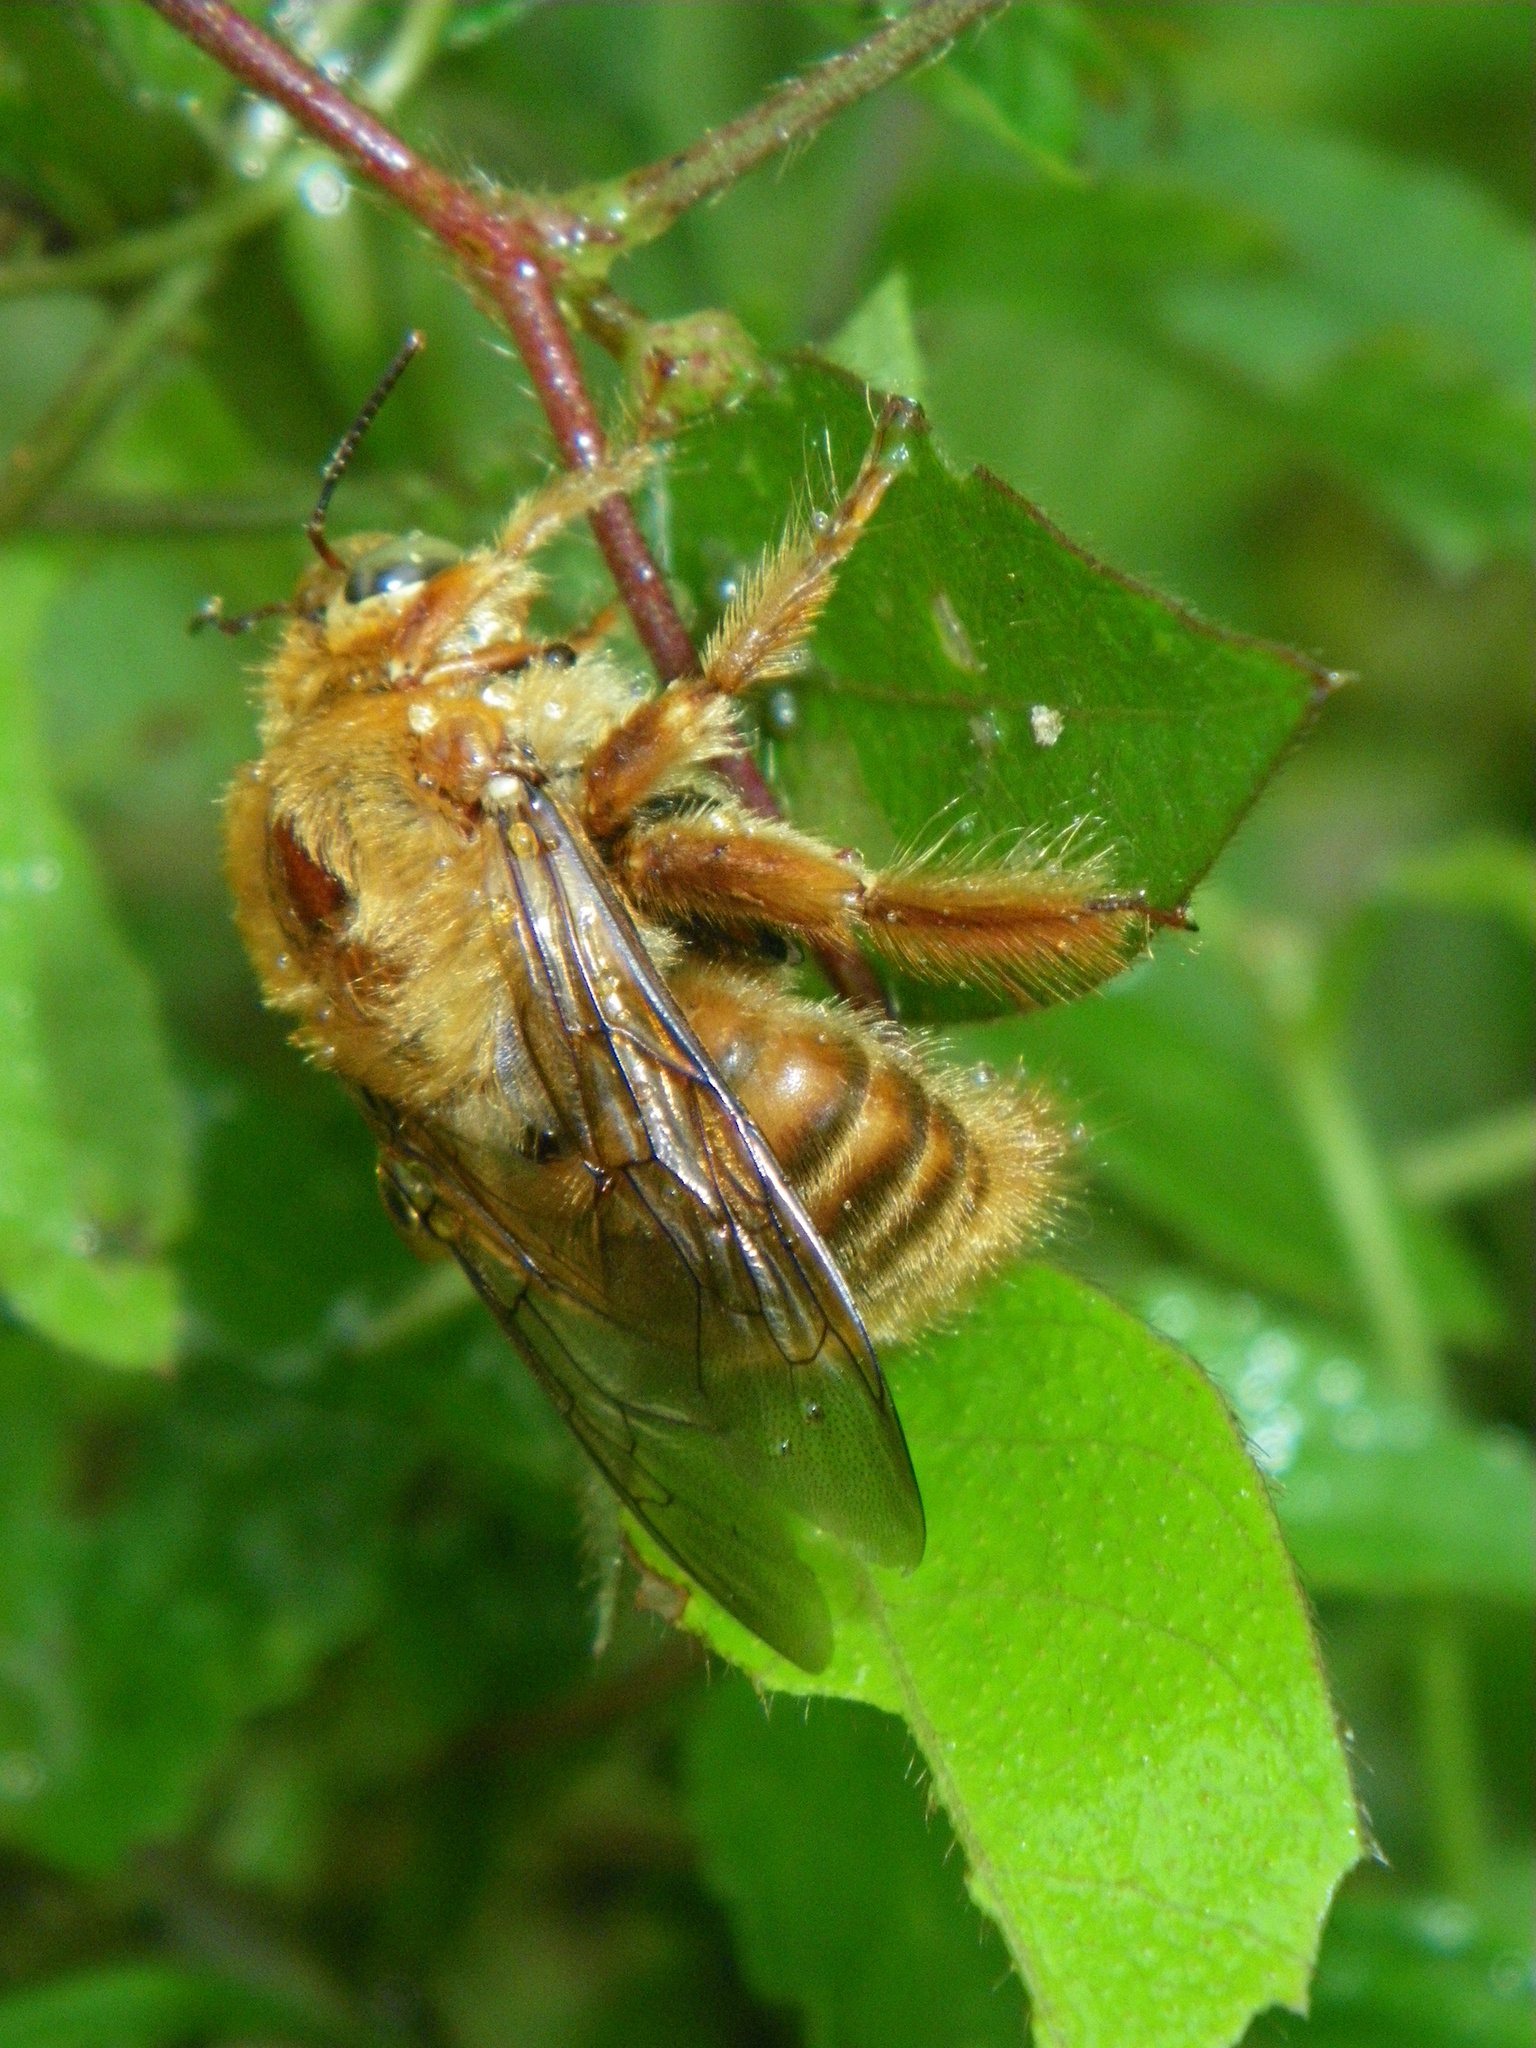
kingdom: Animalia
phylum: Arthropoda
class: Insecta
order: Hymenoptera
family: Apidae
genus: Xylocopa
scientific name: Xylocopa darwini
